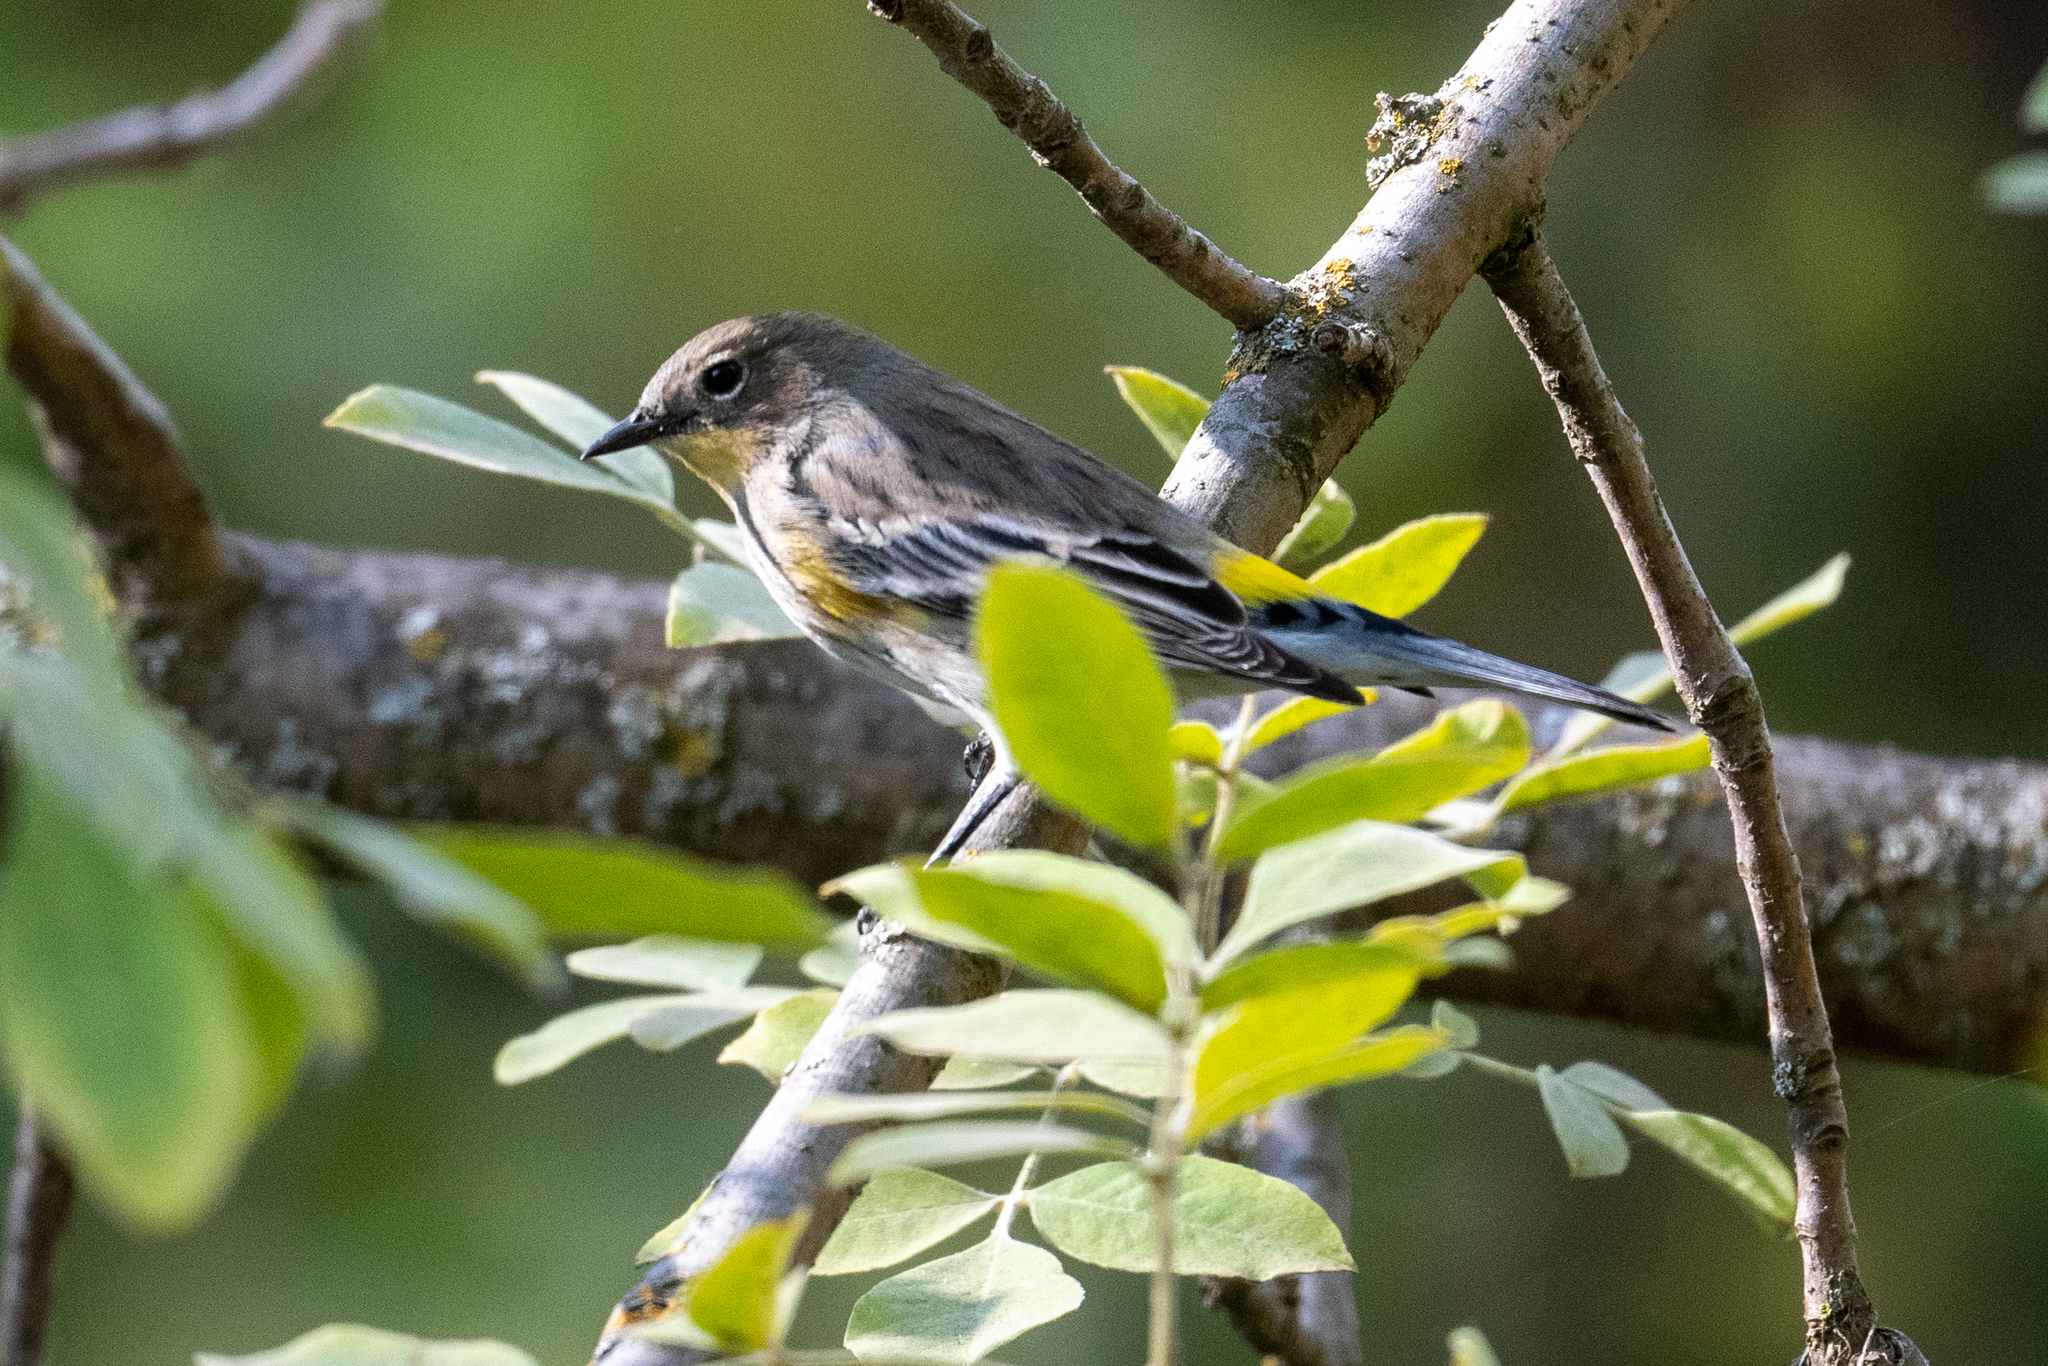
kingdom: Animalia
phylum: Chordata
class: Aves
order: Passeriformes
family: Parulidae
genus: Setophaga
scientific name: Setophaga coronata
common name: Myrtle warbler
